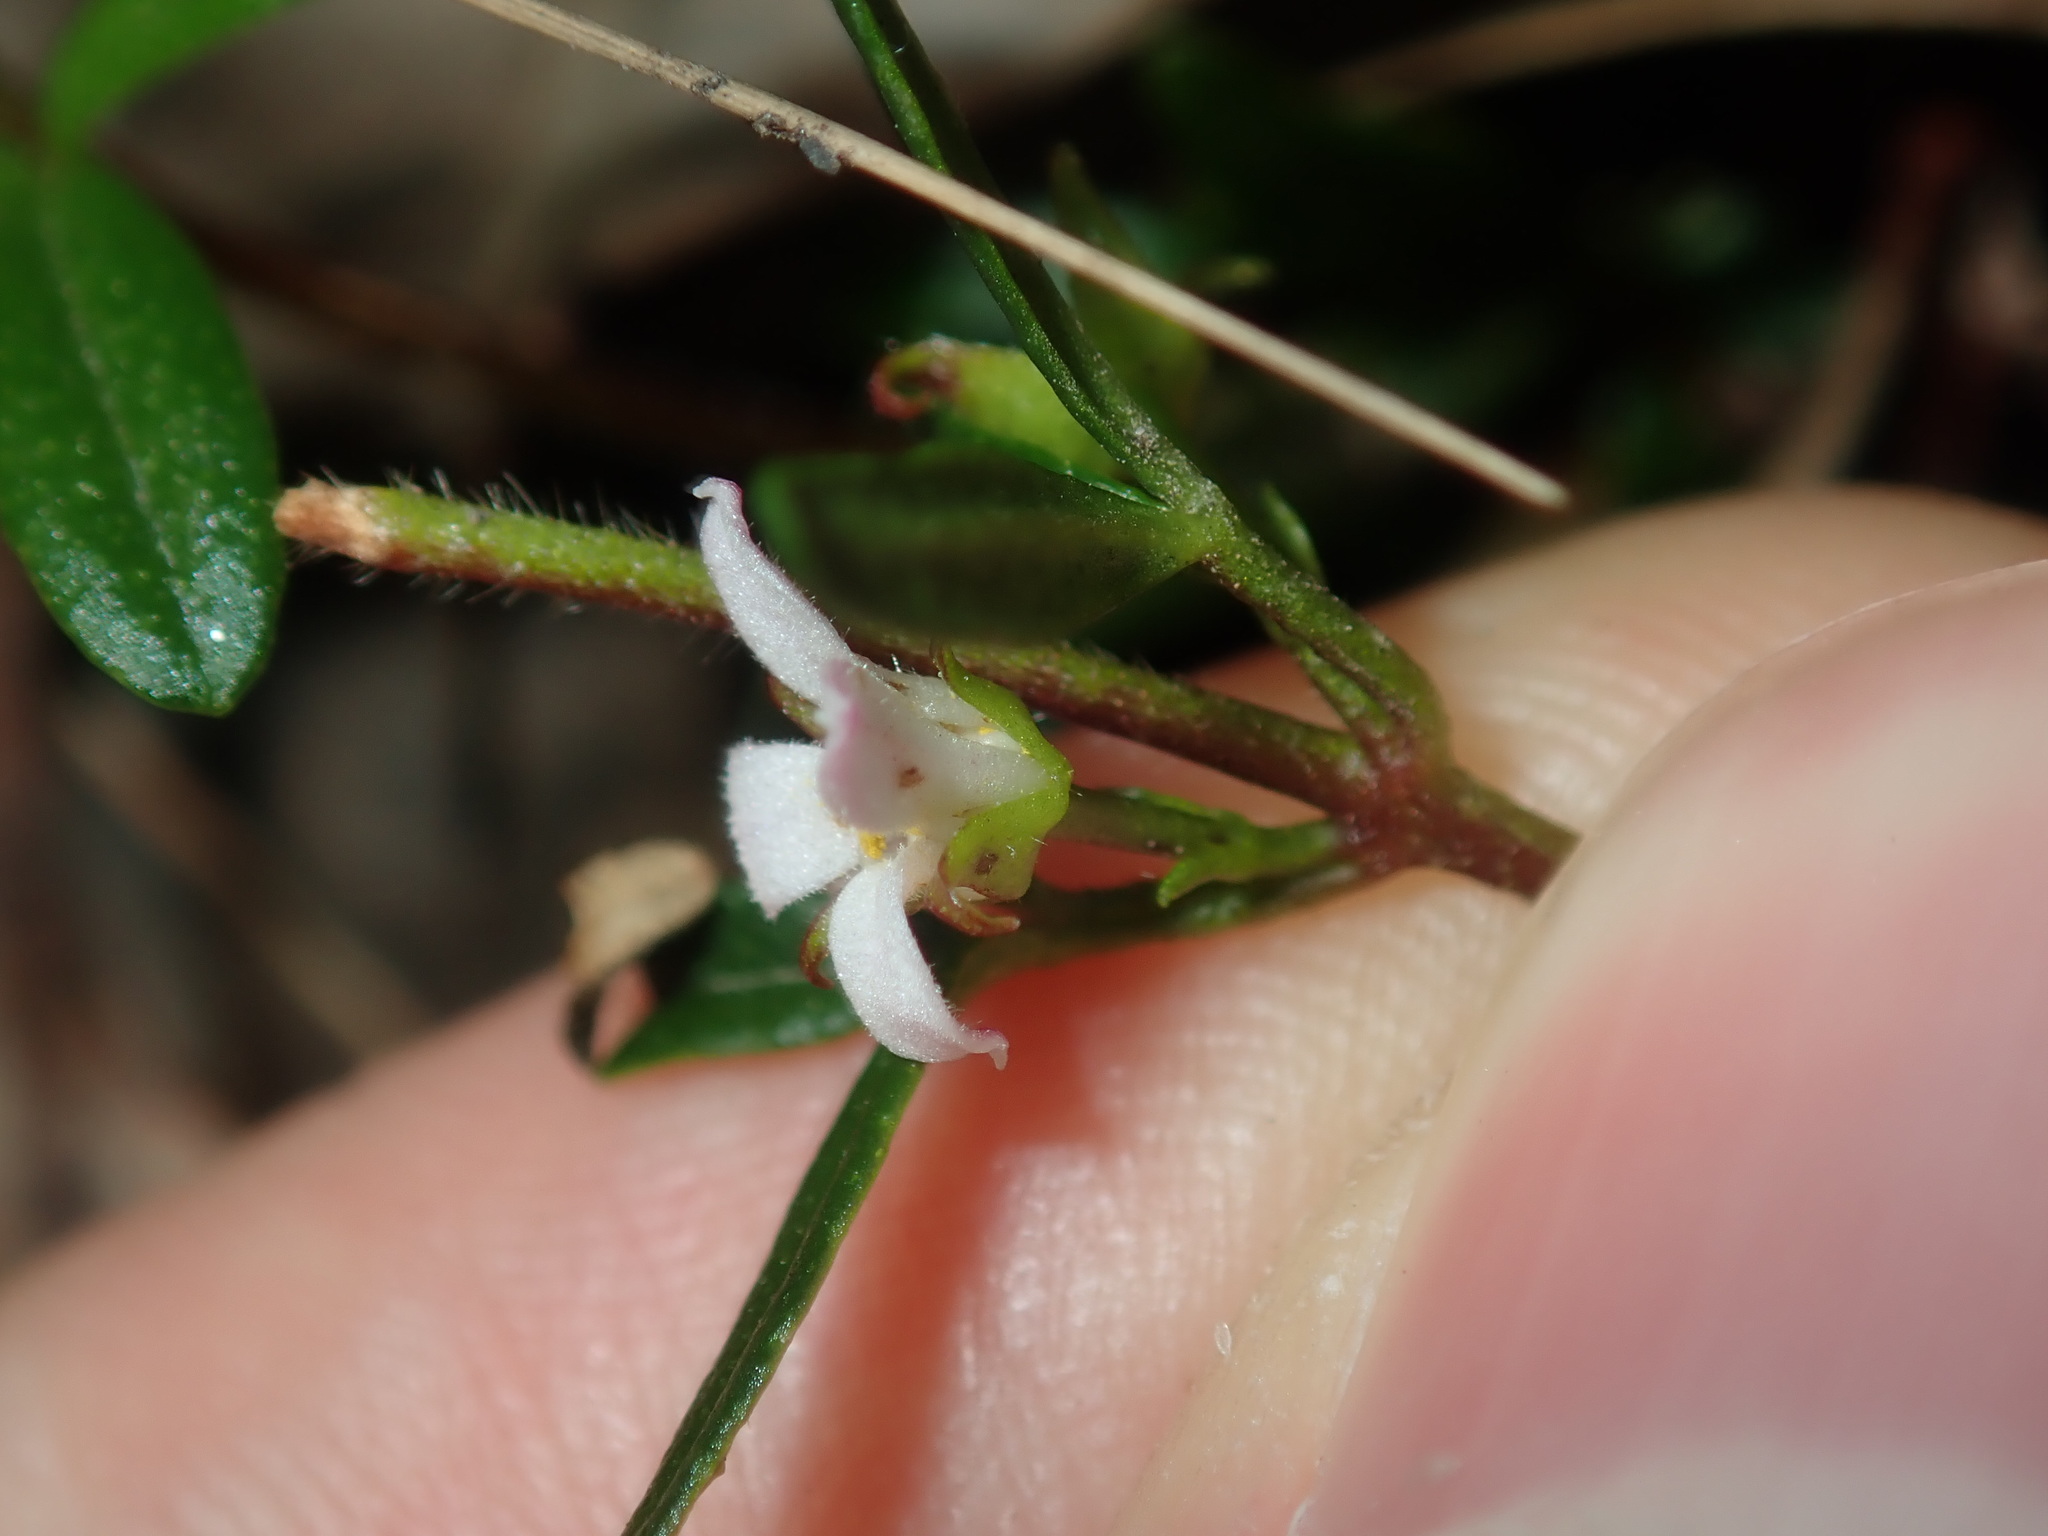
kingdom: Plantae
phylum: Tracheophyta
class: Magnoliopsida
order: Sapindales
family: Rutaceae
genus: Zieria
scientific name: Zieria pilosa
